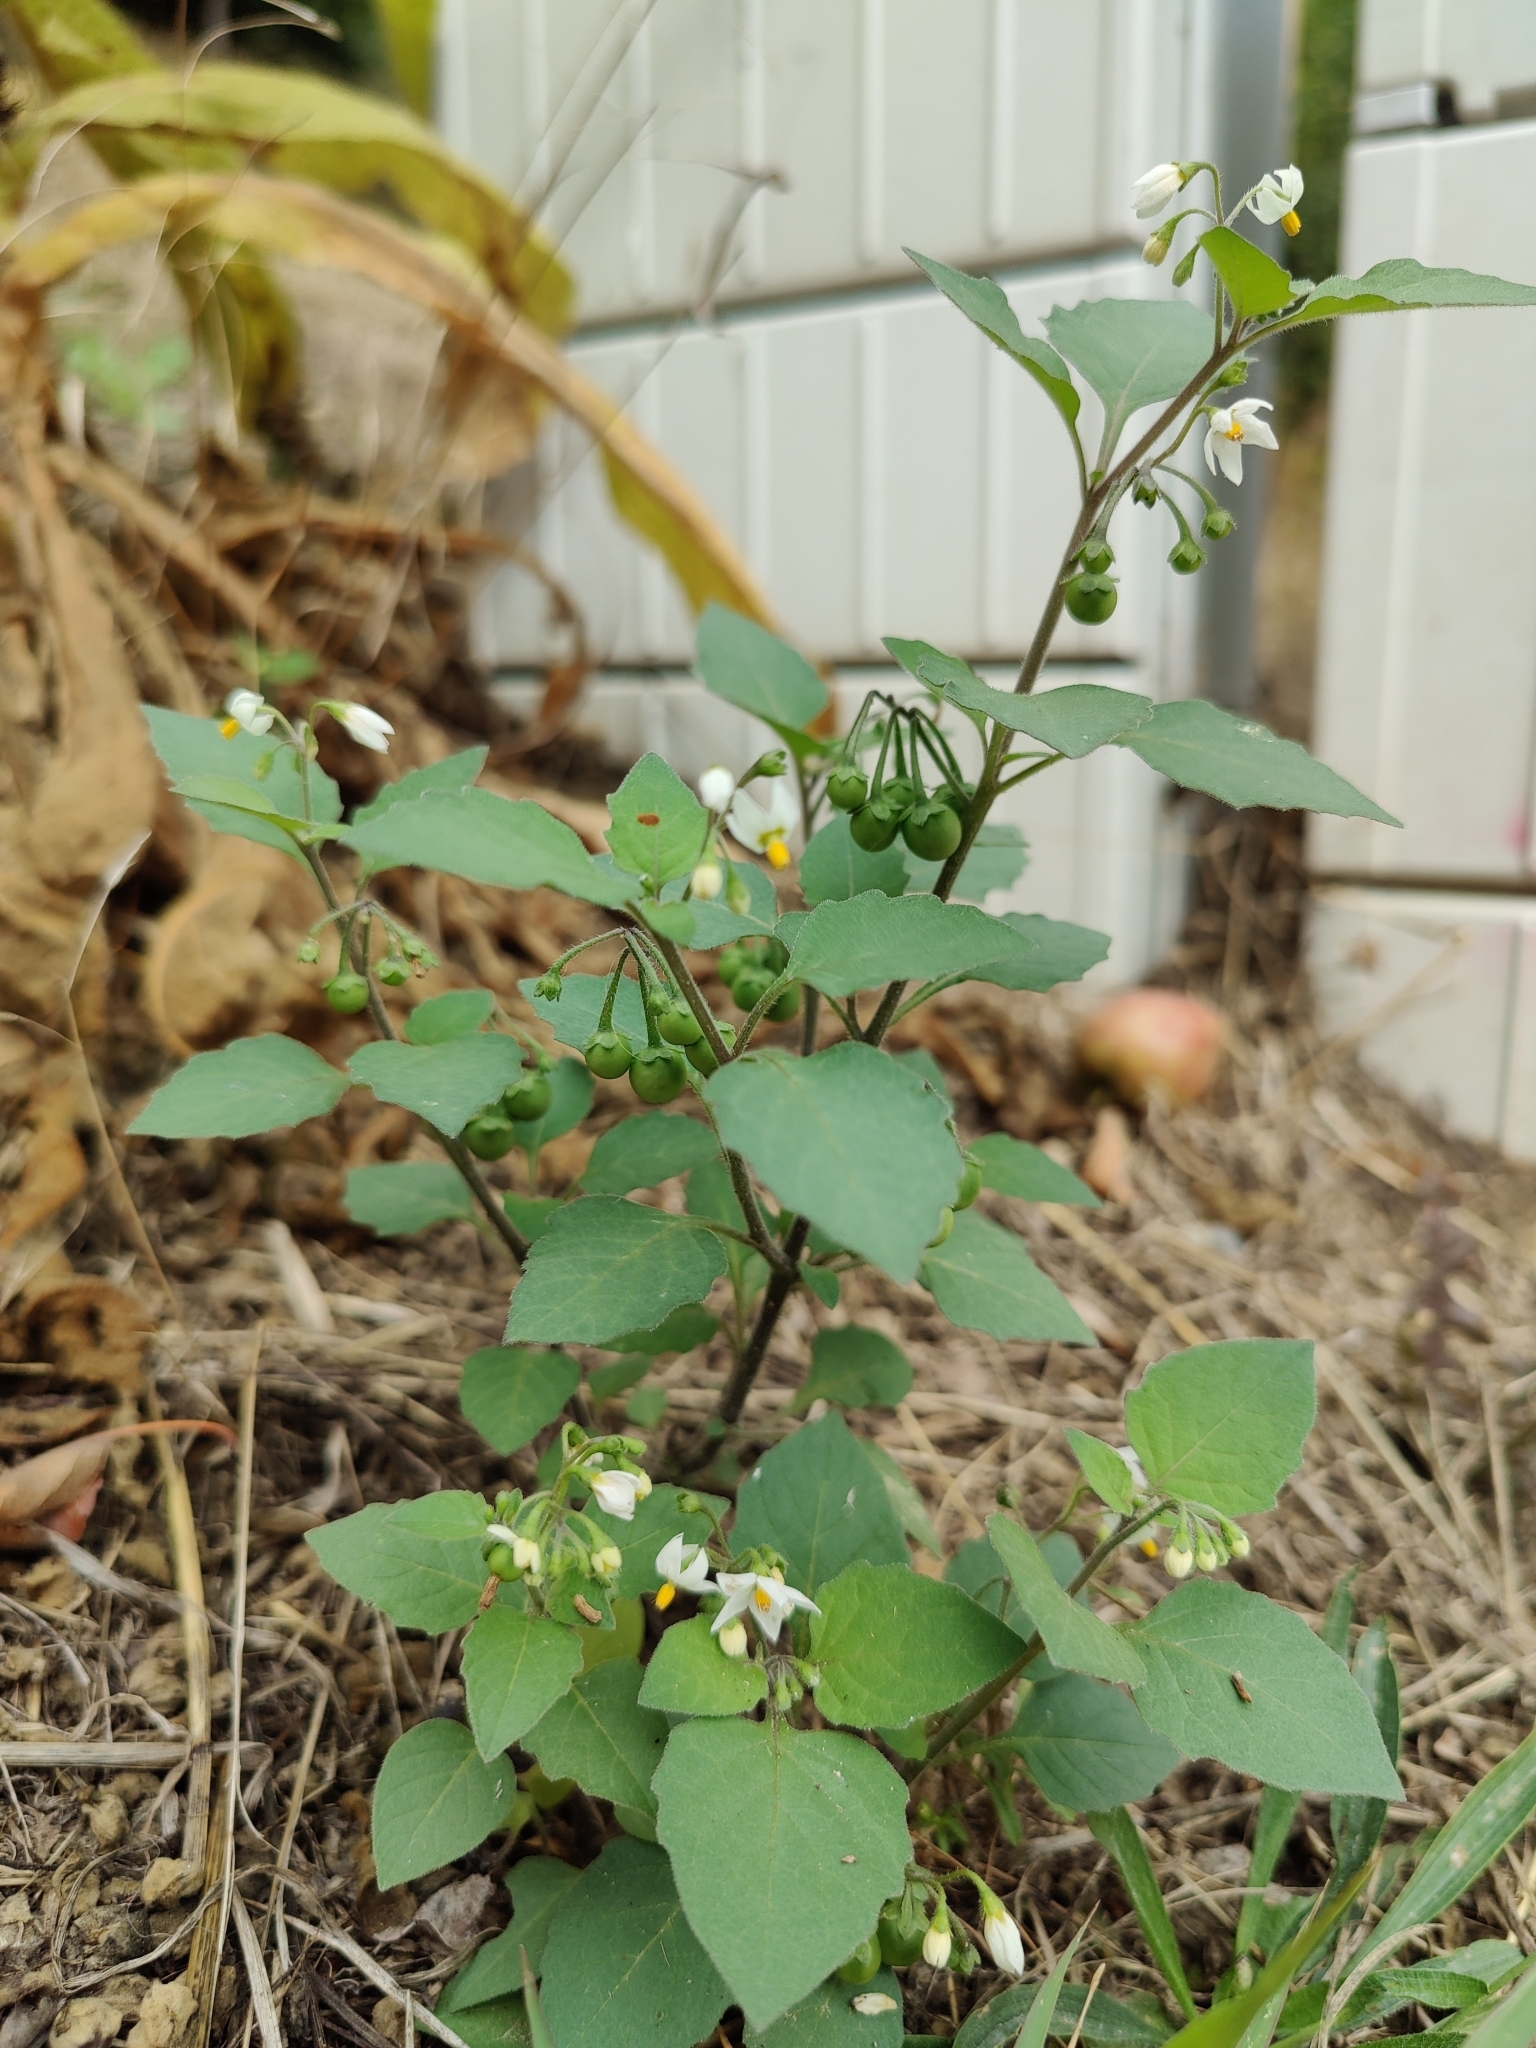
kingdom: Plantae
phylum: Tracheophyta
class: Magnoliopsida
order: Solanales
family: Solanaceae
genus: Solanum
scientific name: Solanum nigrum
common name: Black nightshade
